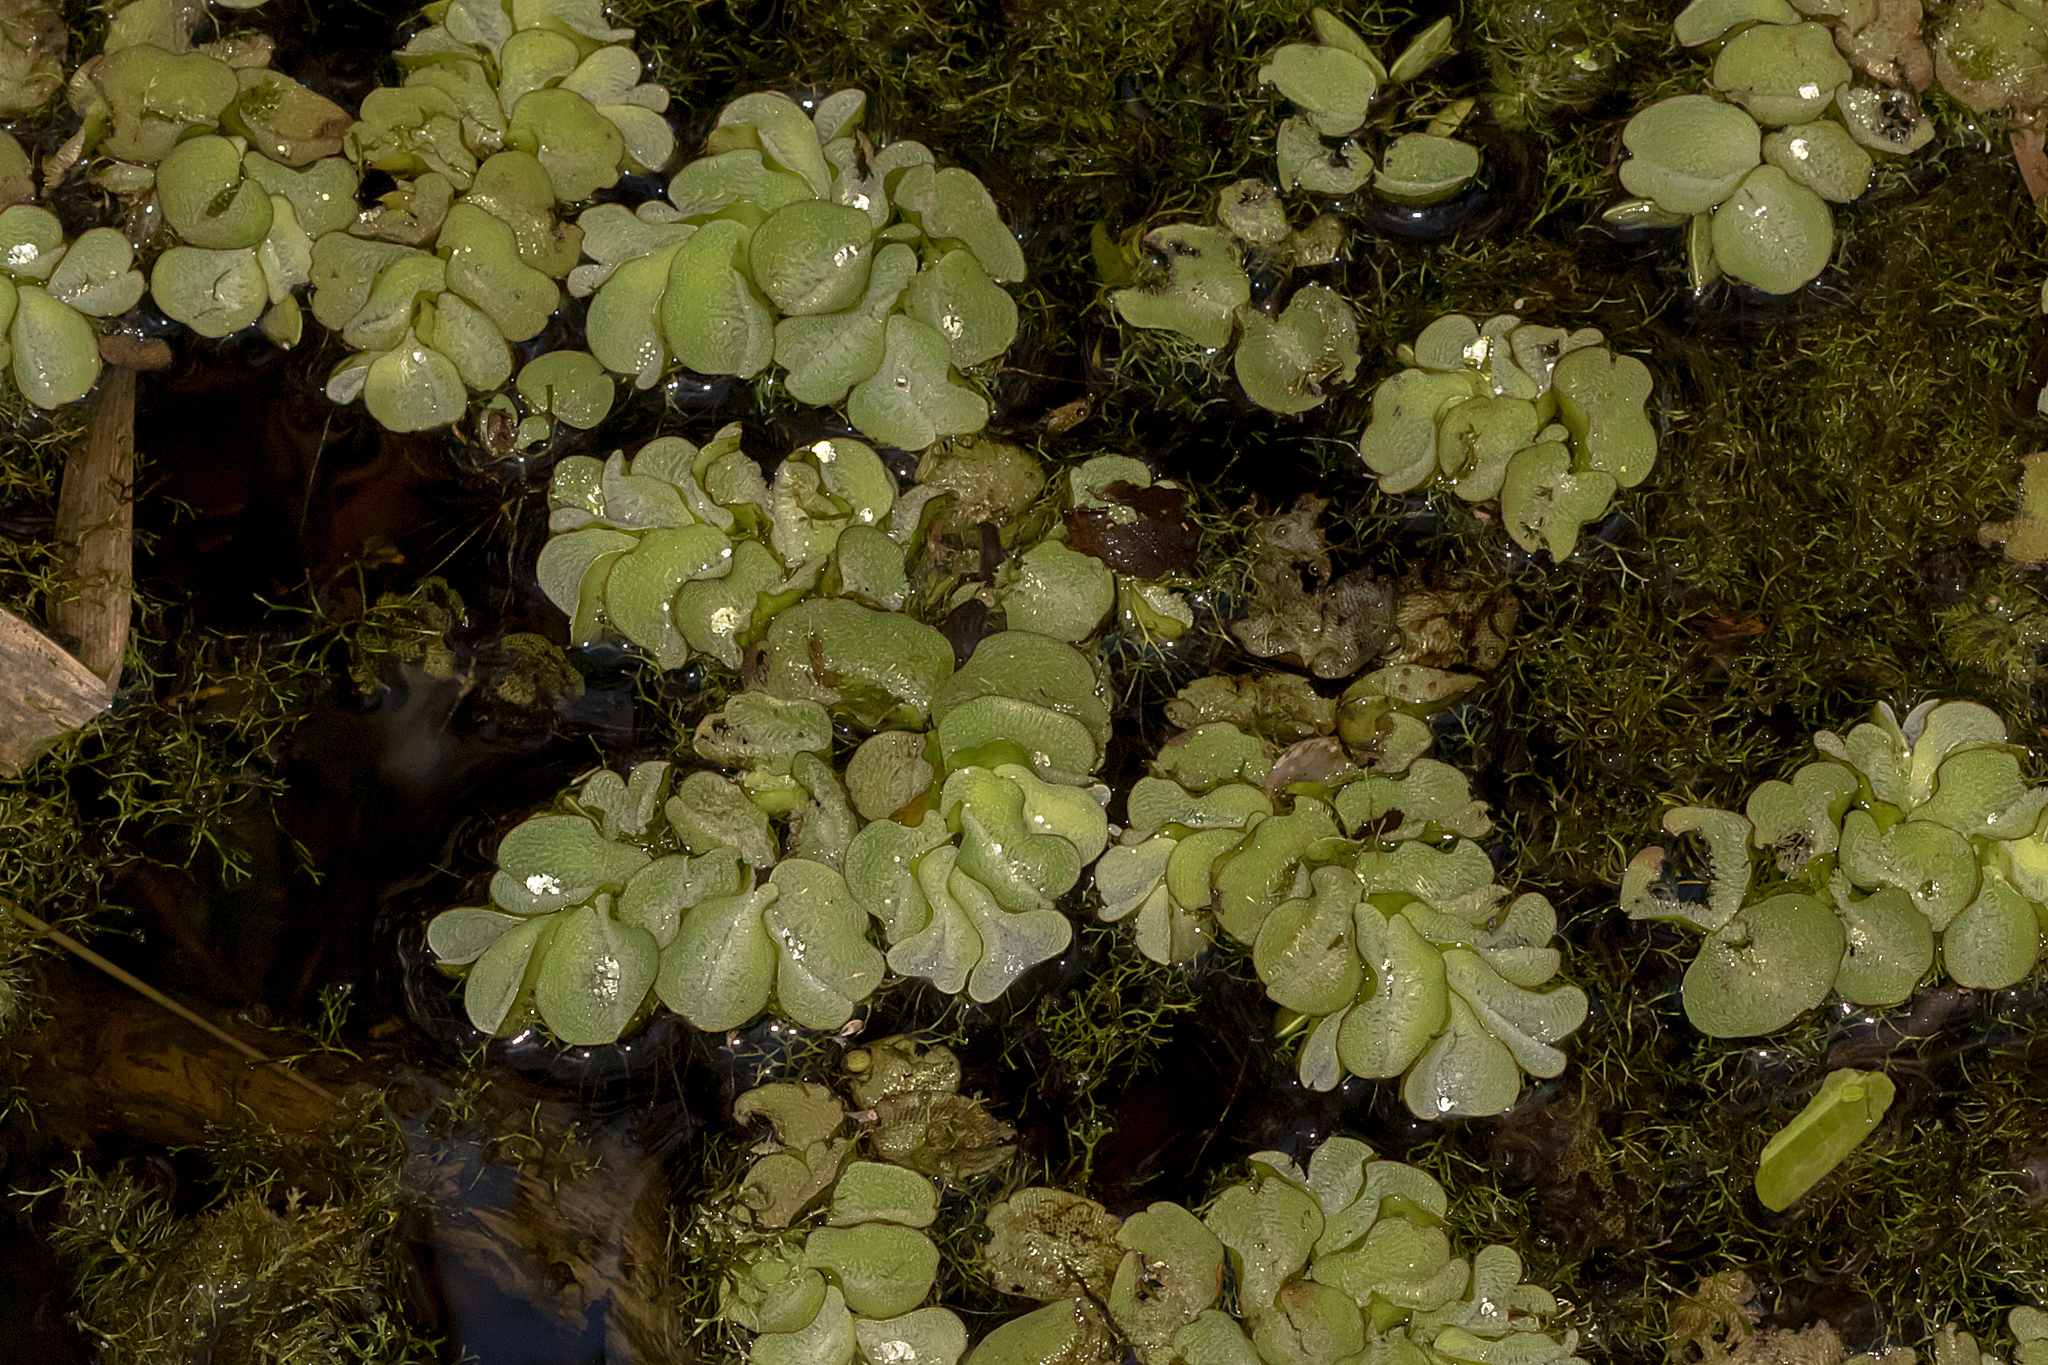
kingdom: Plantae
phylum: Tracheophyta
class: Polypodiopsida
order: Salviniales
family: Salviniaceae
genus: Salvinia
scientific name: Salvinia molesta
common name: Kariba weed
